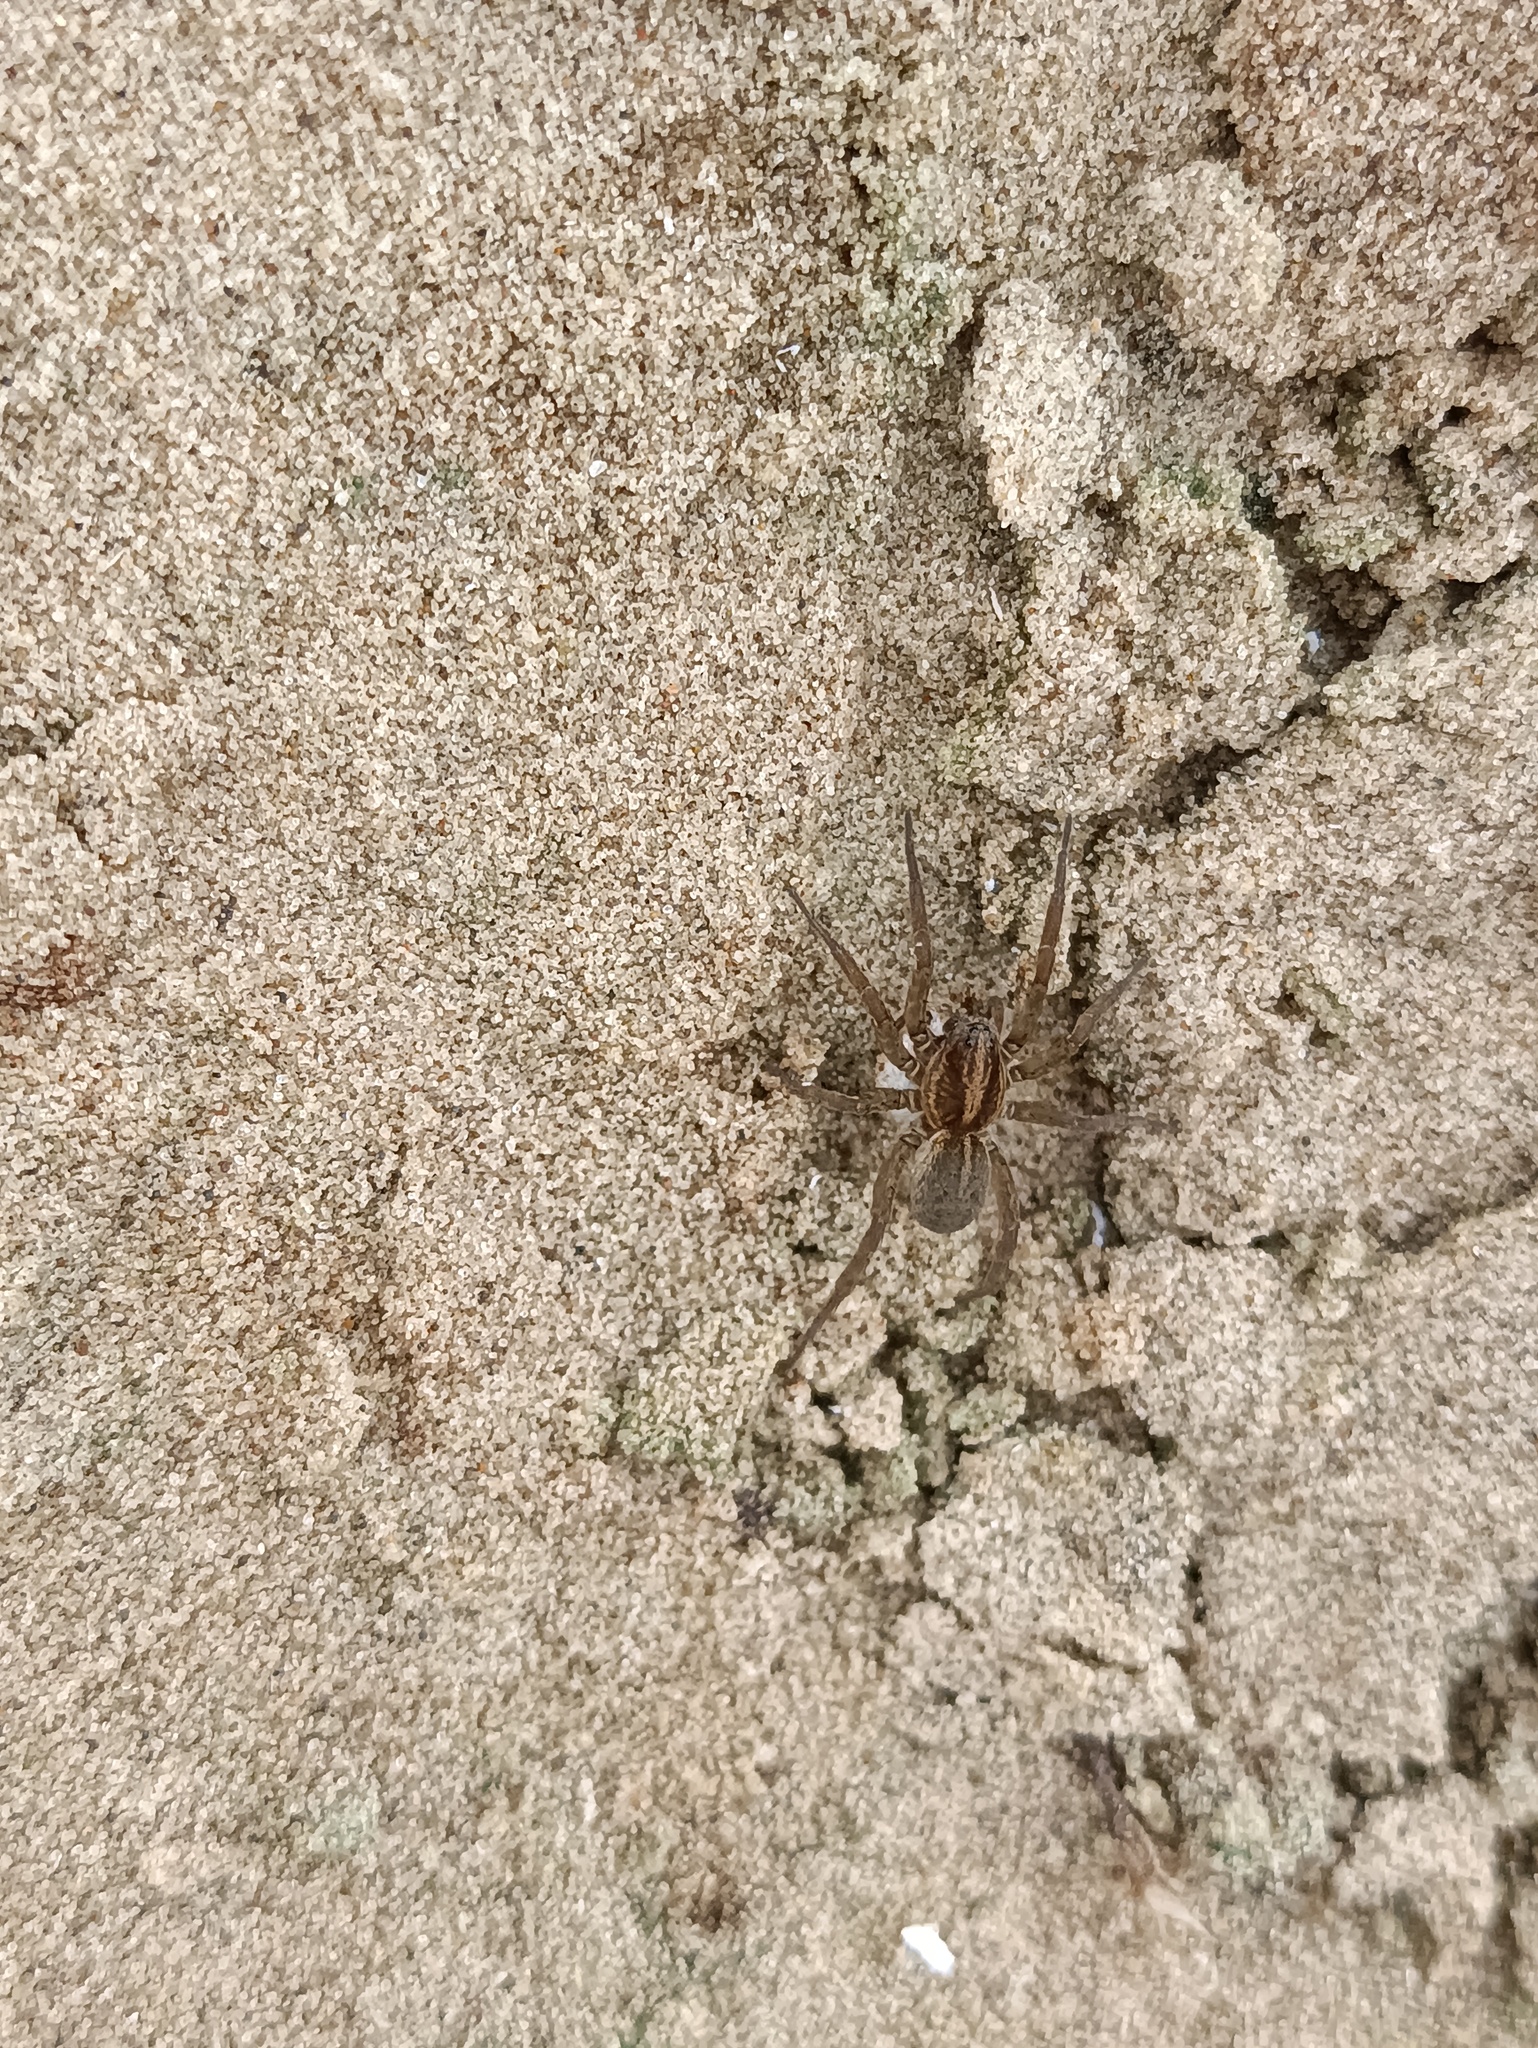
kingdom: Animalia
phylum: Arthropoda
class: Arachnida
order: Araneae
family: Lycosidae
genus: Trochosa
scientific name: Trochosa
